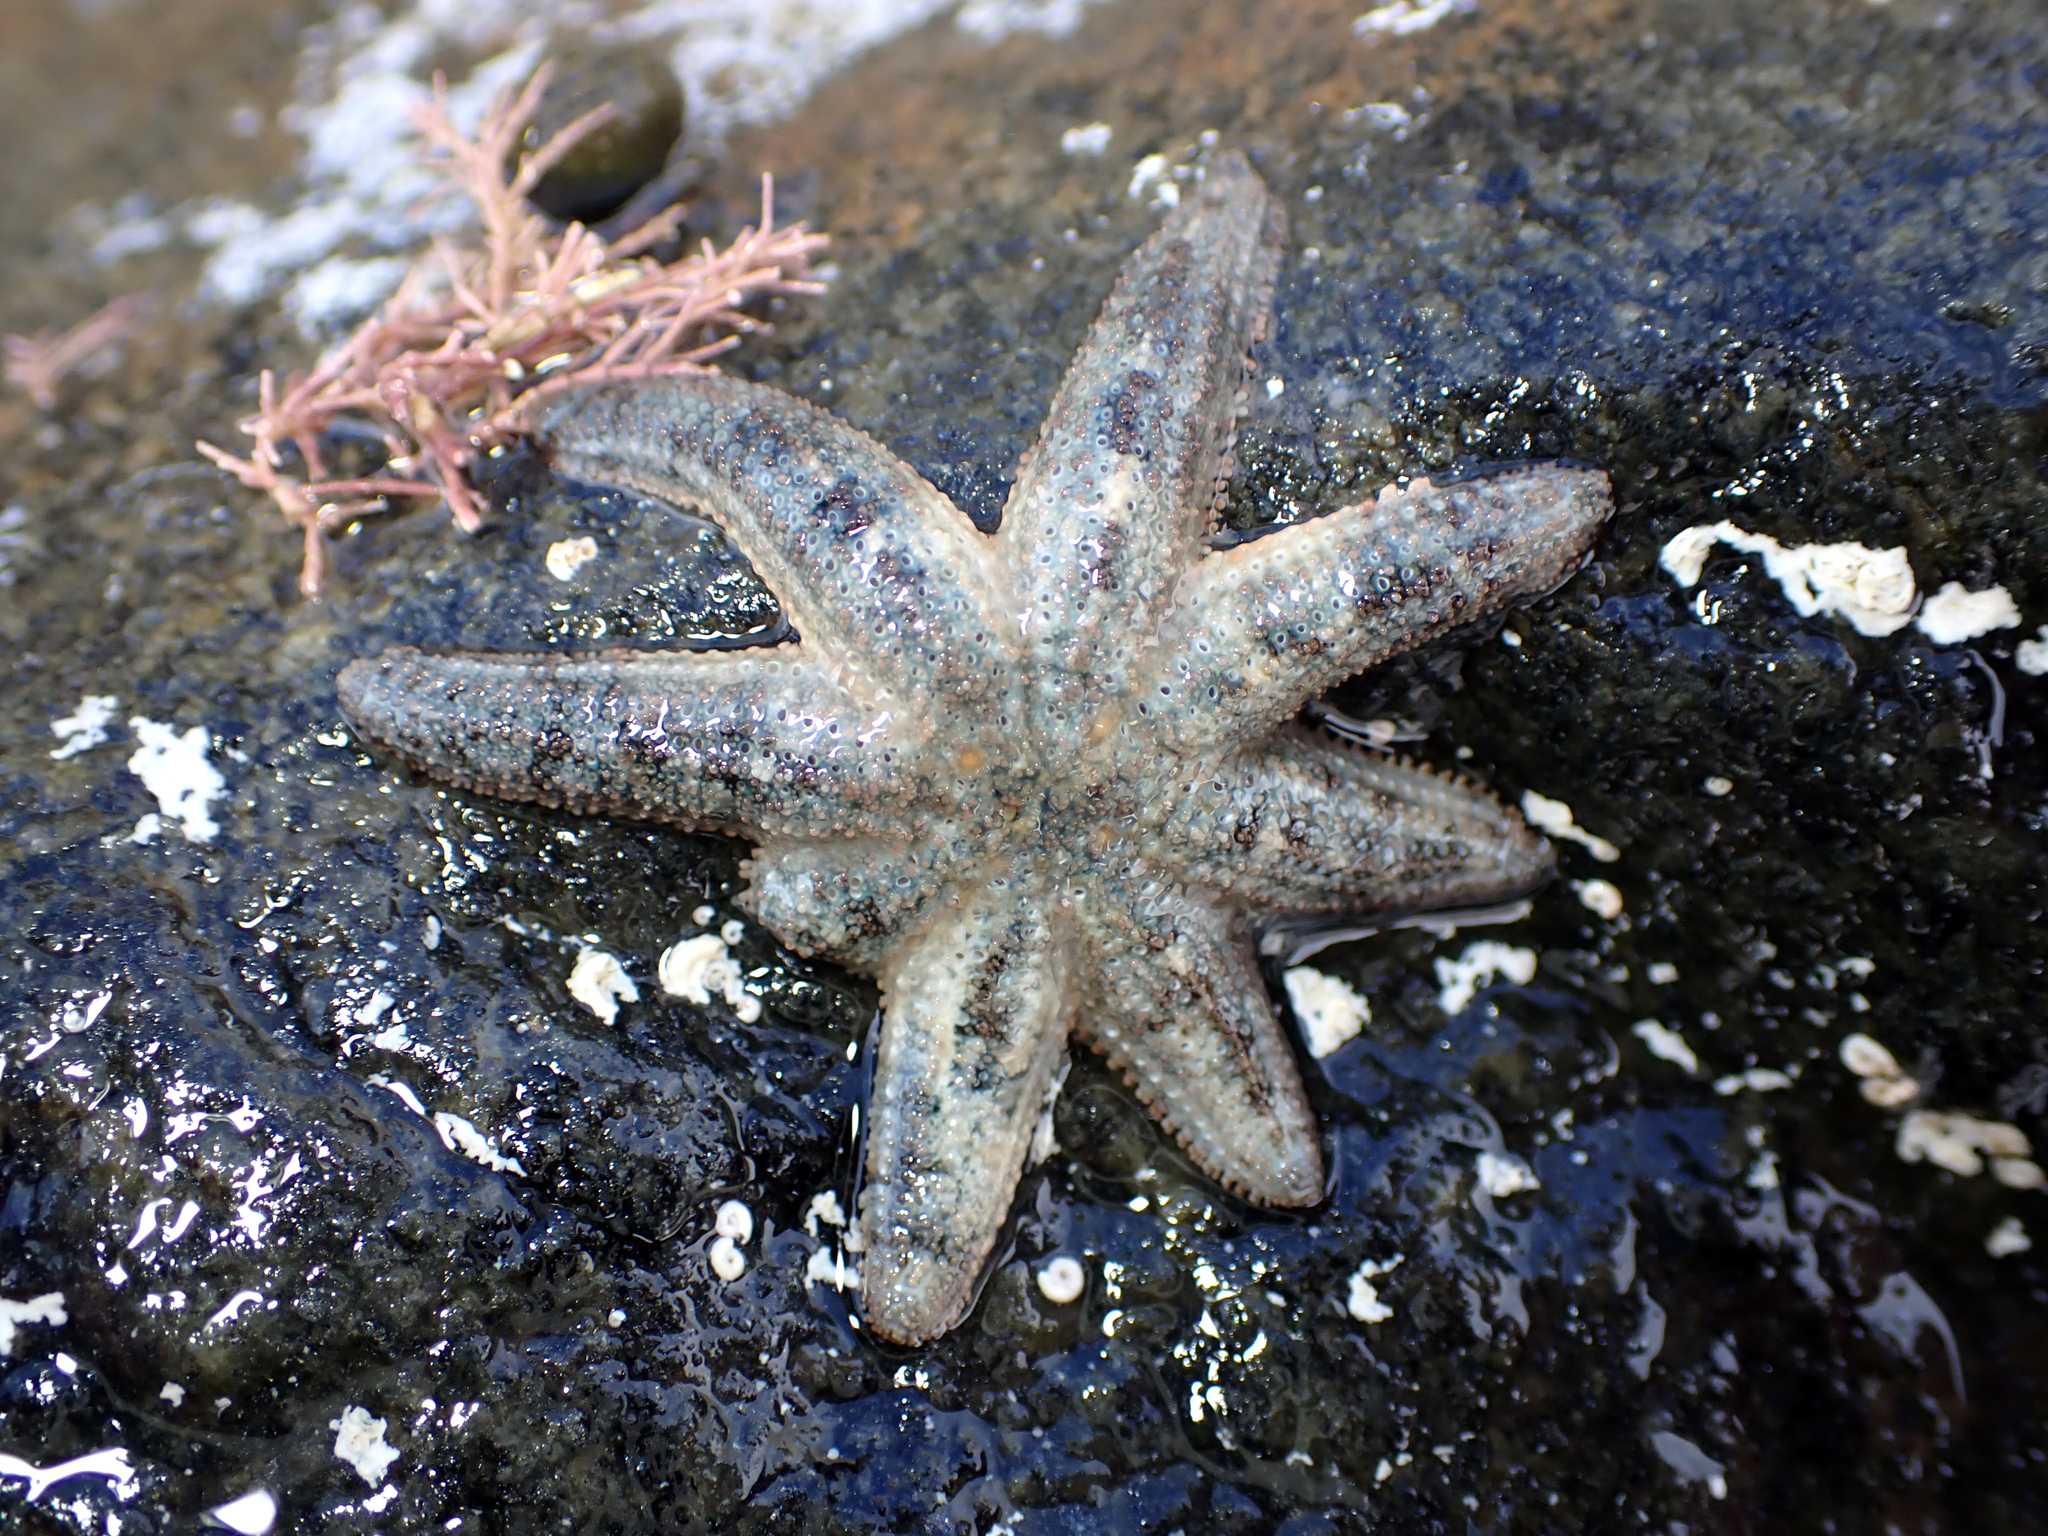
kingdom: Animalia
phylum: Echinodermata
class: Asteroidea
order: Forcipulatida
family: Stichasteridae
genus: Allostichaster
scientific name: Allostichaster polyplax
